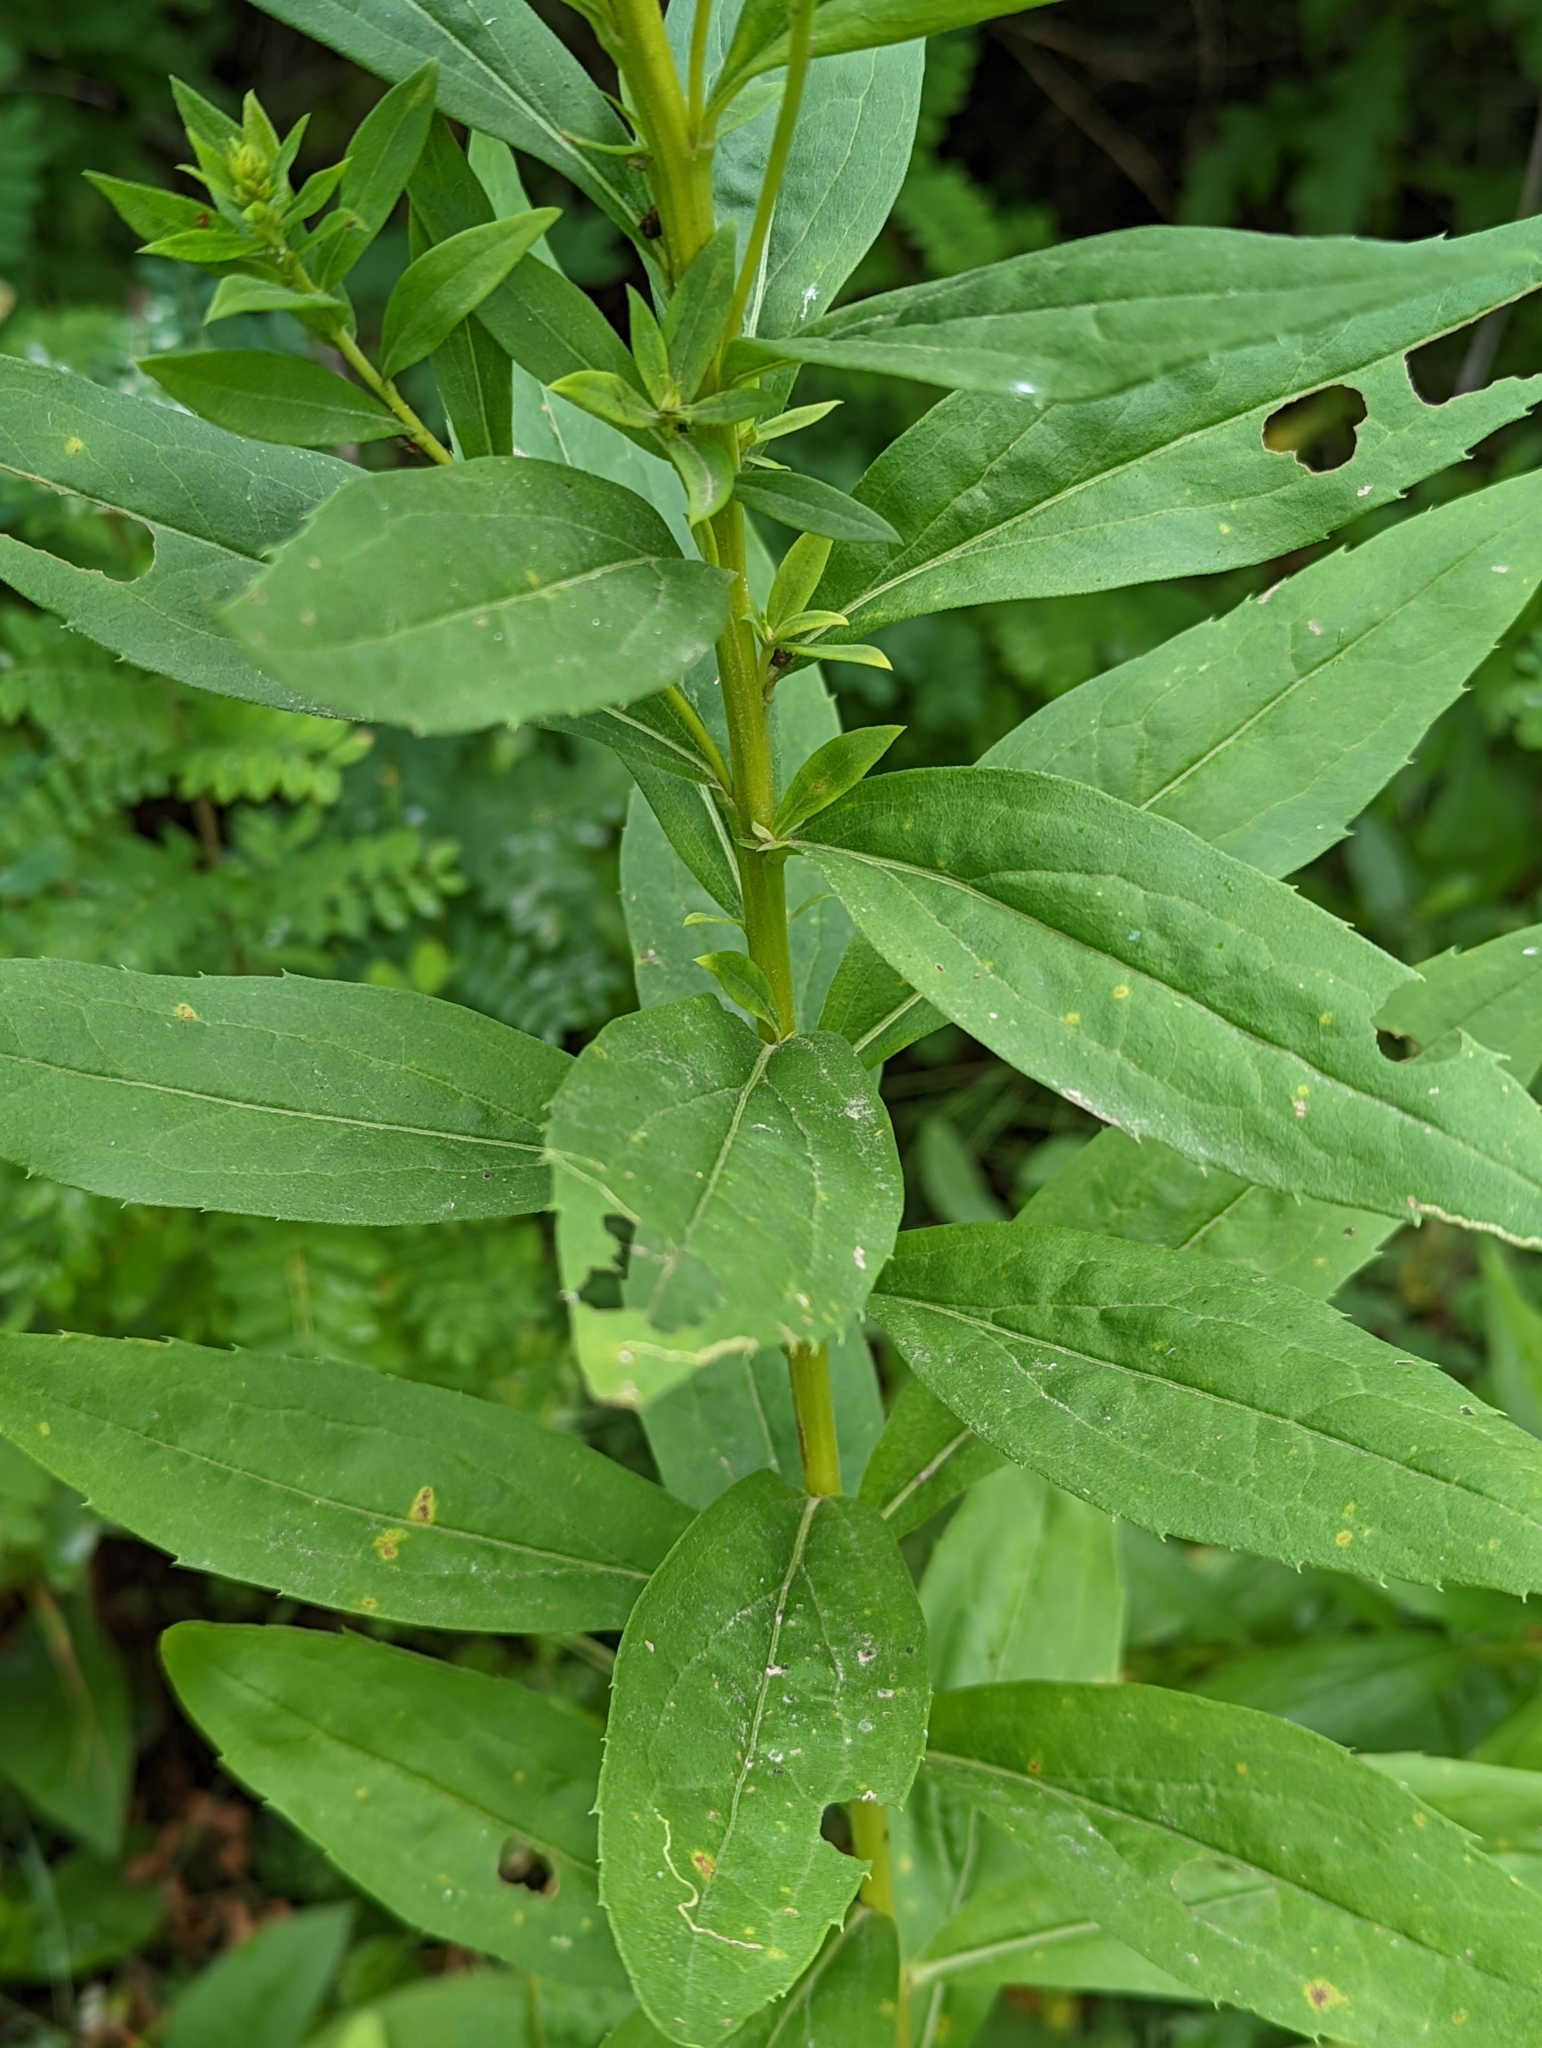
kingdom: Plantae
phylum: Tracheophyta
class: Magnoliopsida
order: Asterales
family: Asteraceae
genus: Solidago
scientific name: Solidago lepida
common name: Western canada goldenrod
